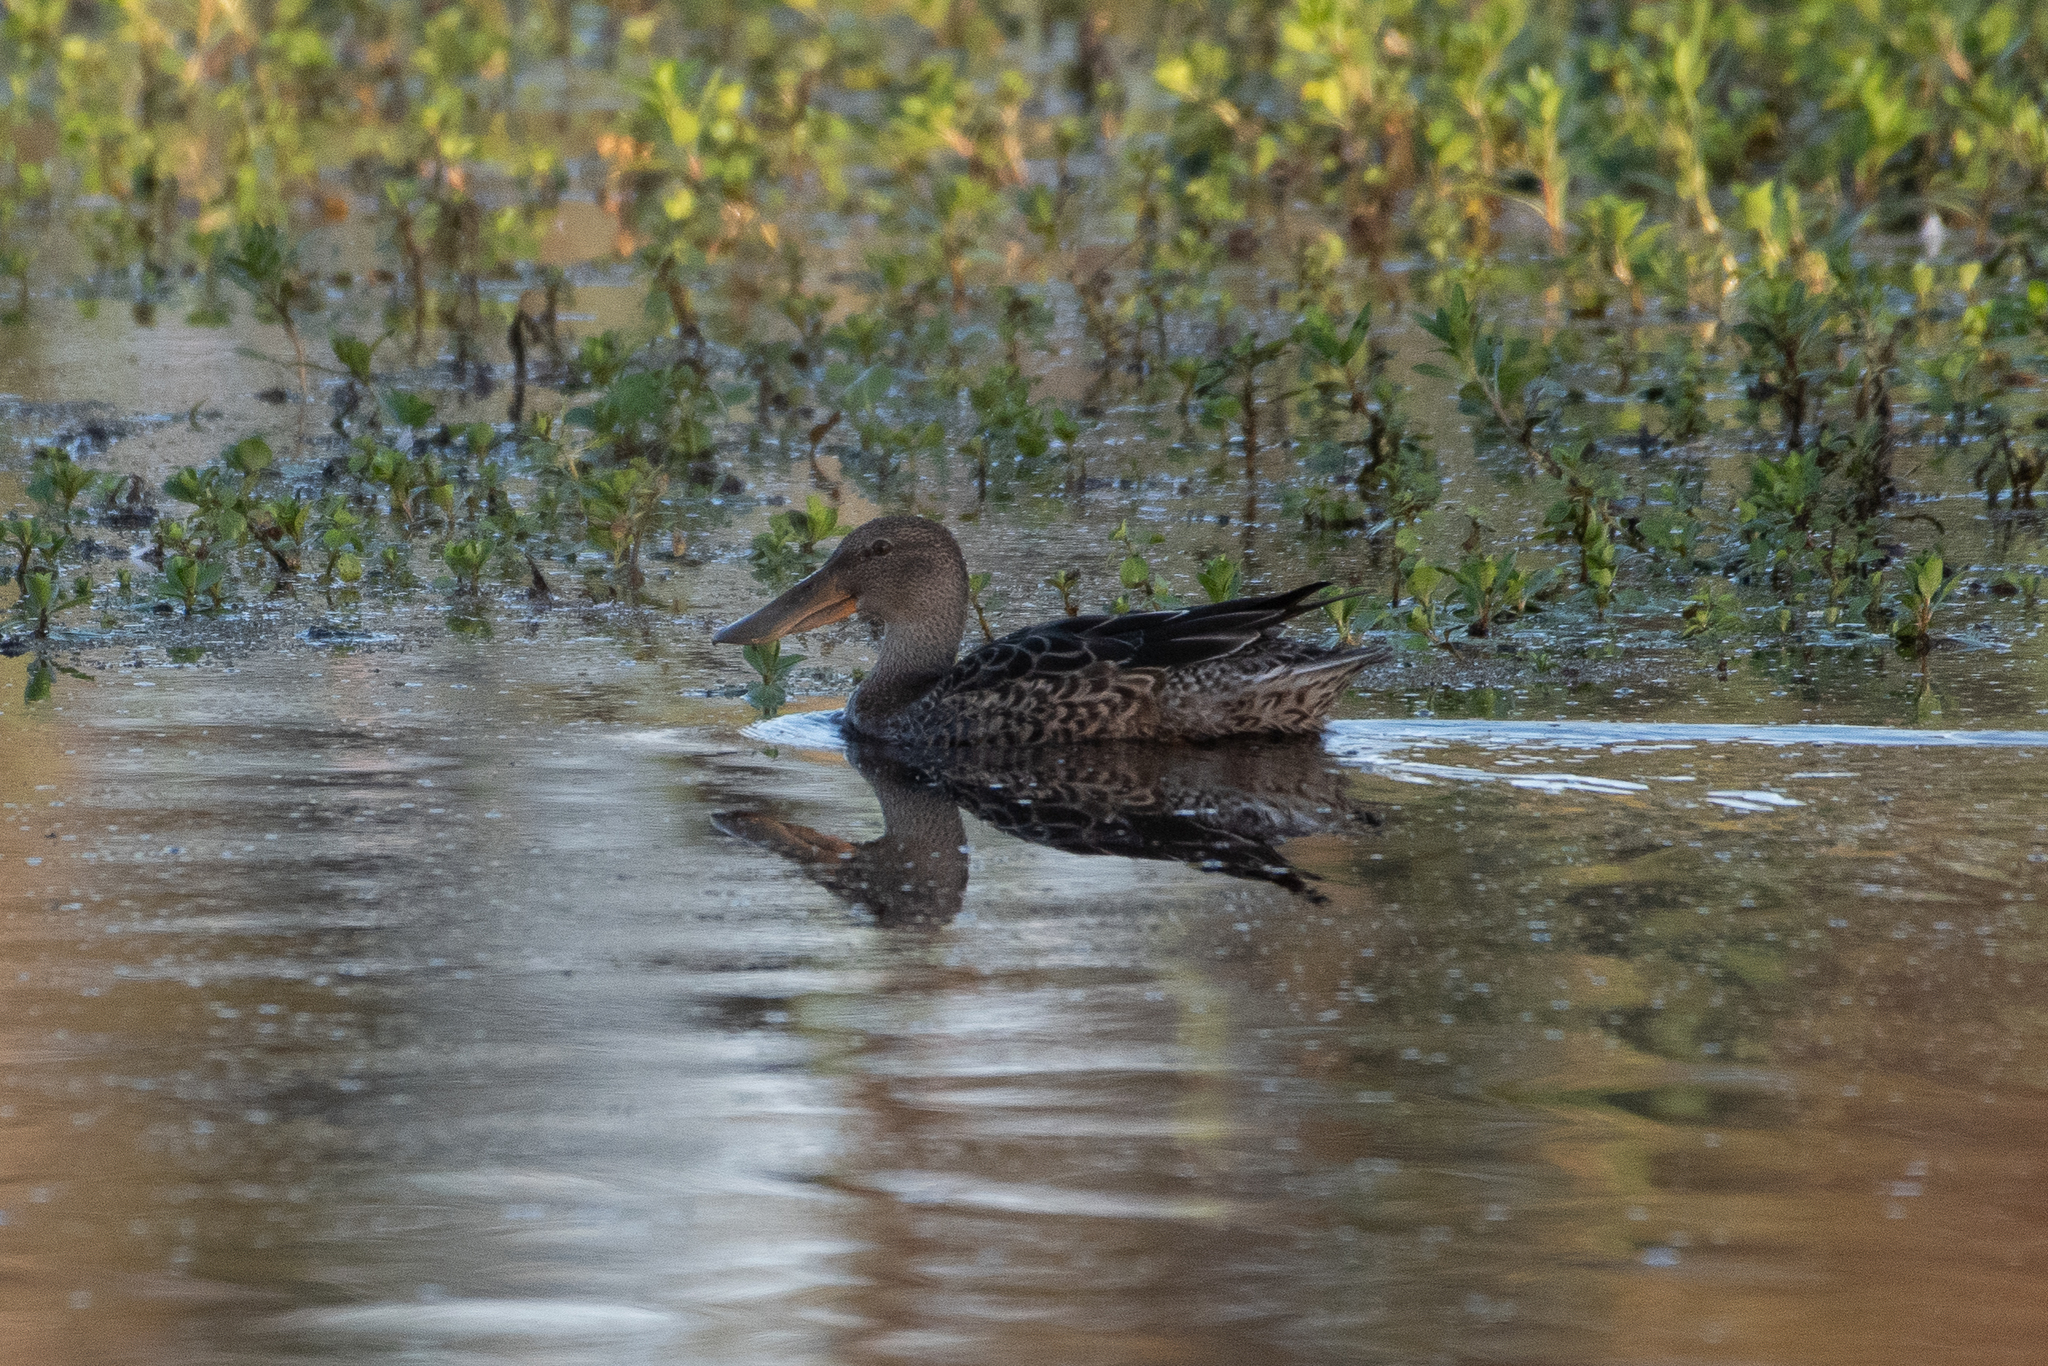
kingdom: Animalia
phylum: Chordata
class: Aves
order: Anseriformes
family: Anatidae
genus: Spatula
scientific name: Spatula clypeata
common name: Northern shoveler
